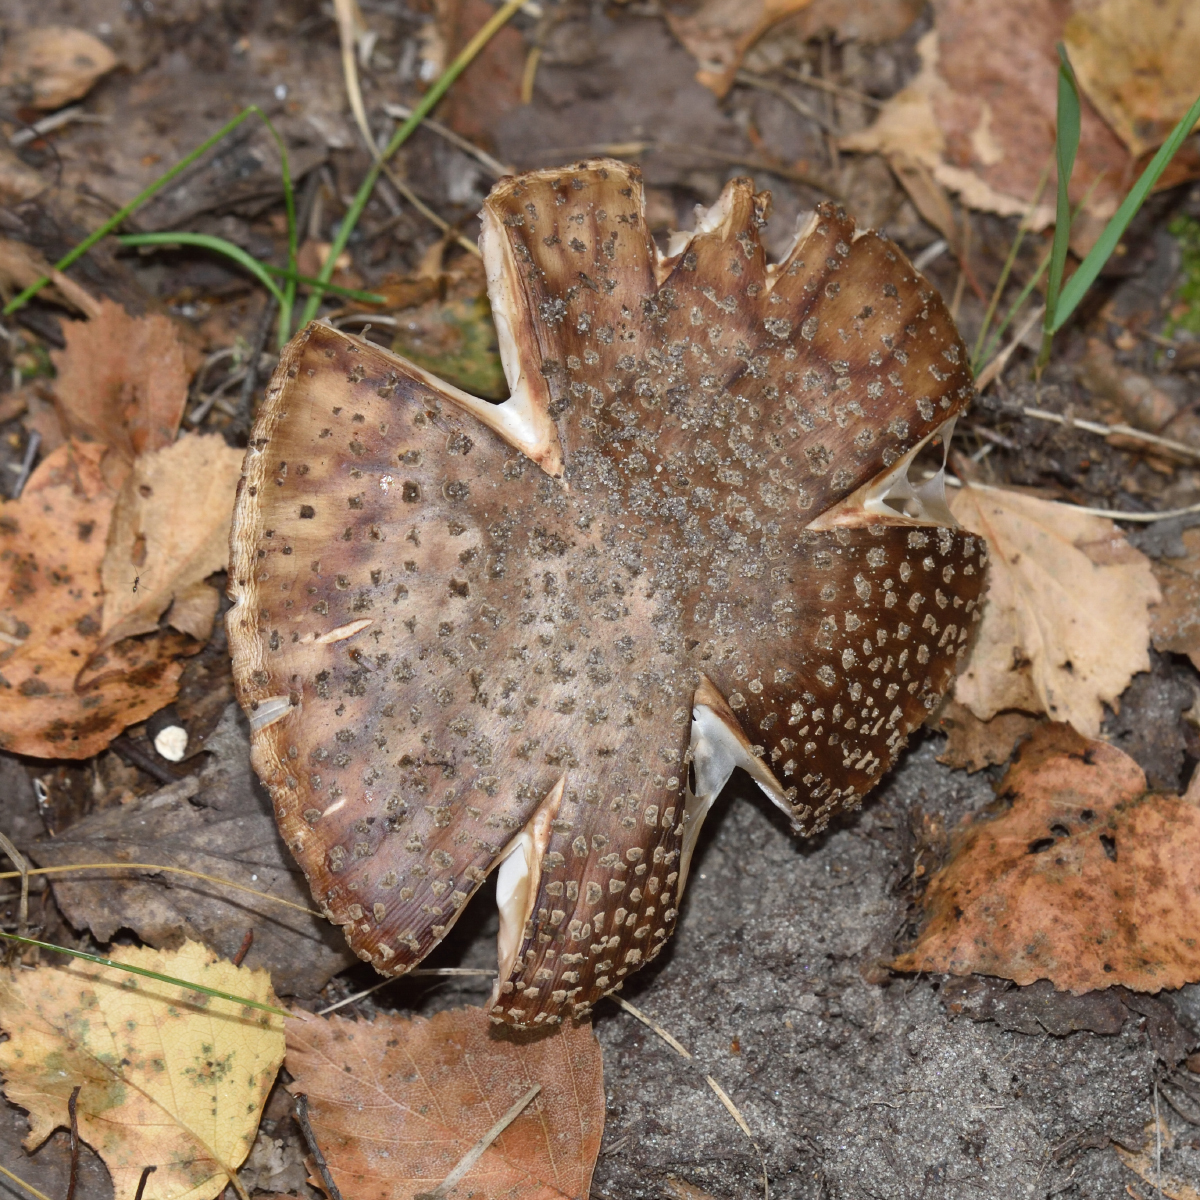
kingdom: Fungi
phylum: Basidiomycota
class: Agaricomycetes
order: Agaricales
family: Amanitaceae
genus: Amanita
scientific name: Amanita rubescens
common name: Blusher
